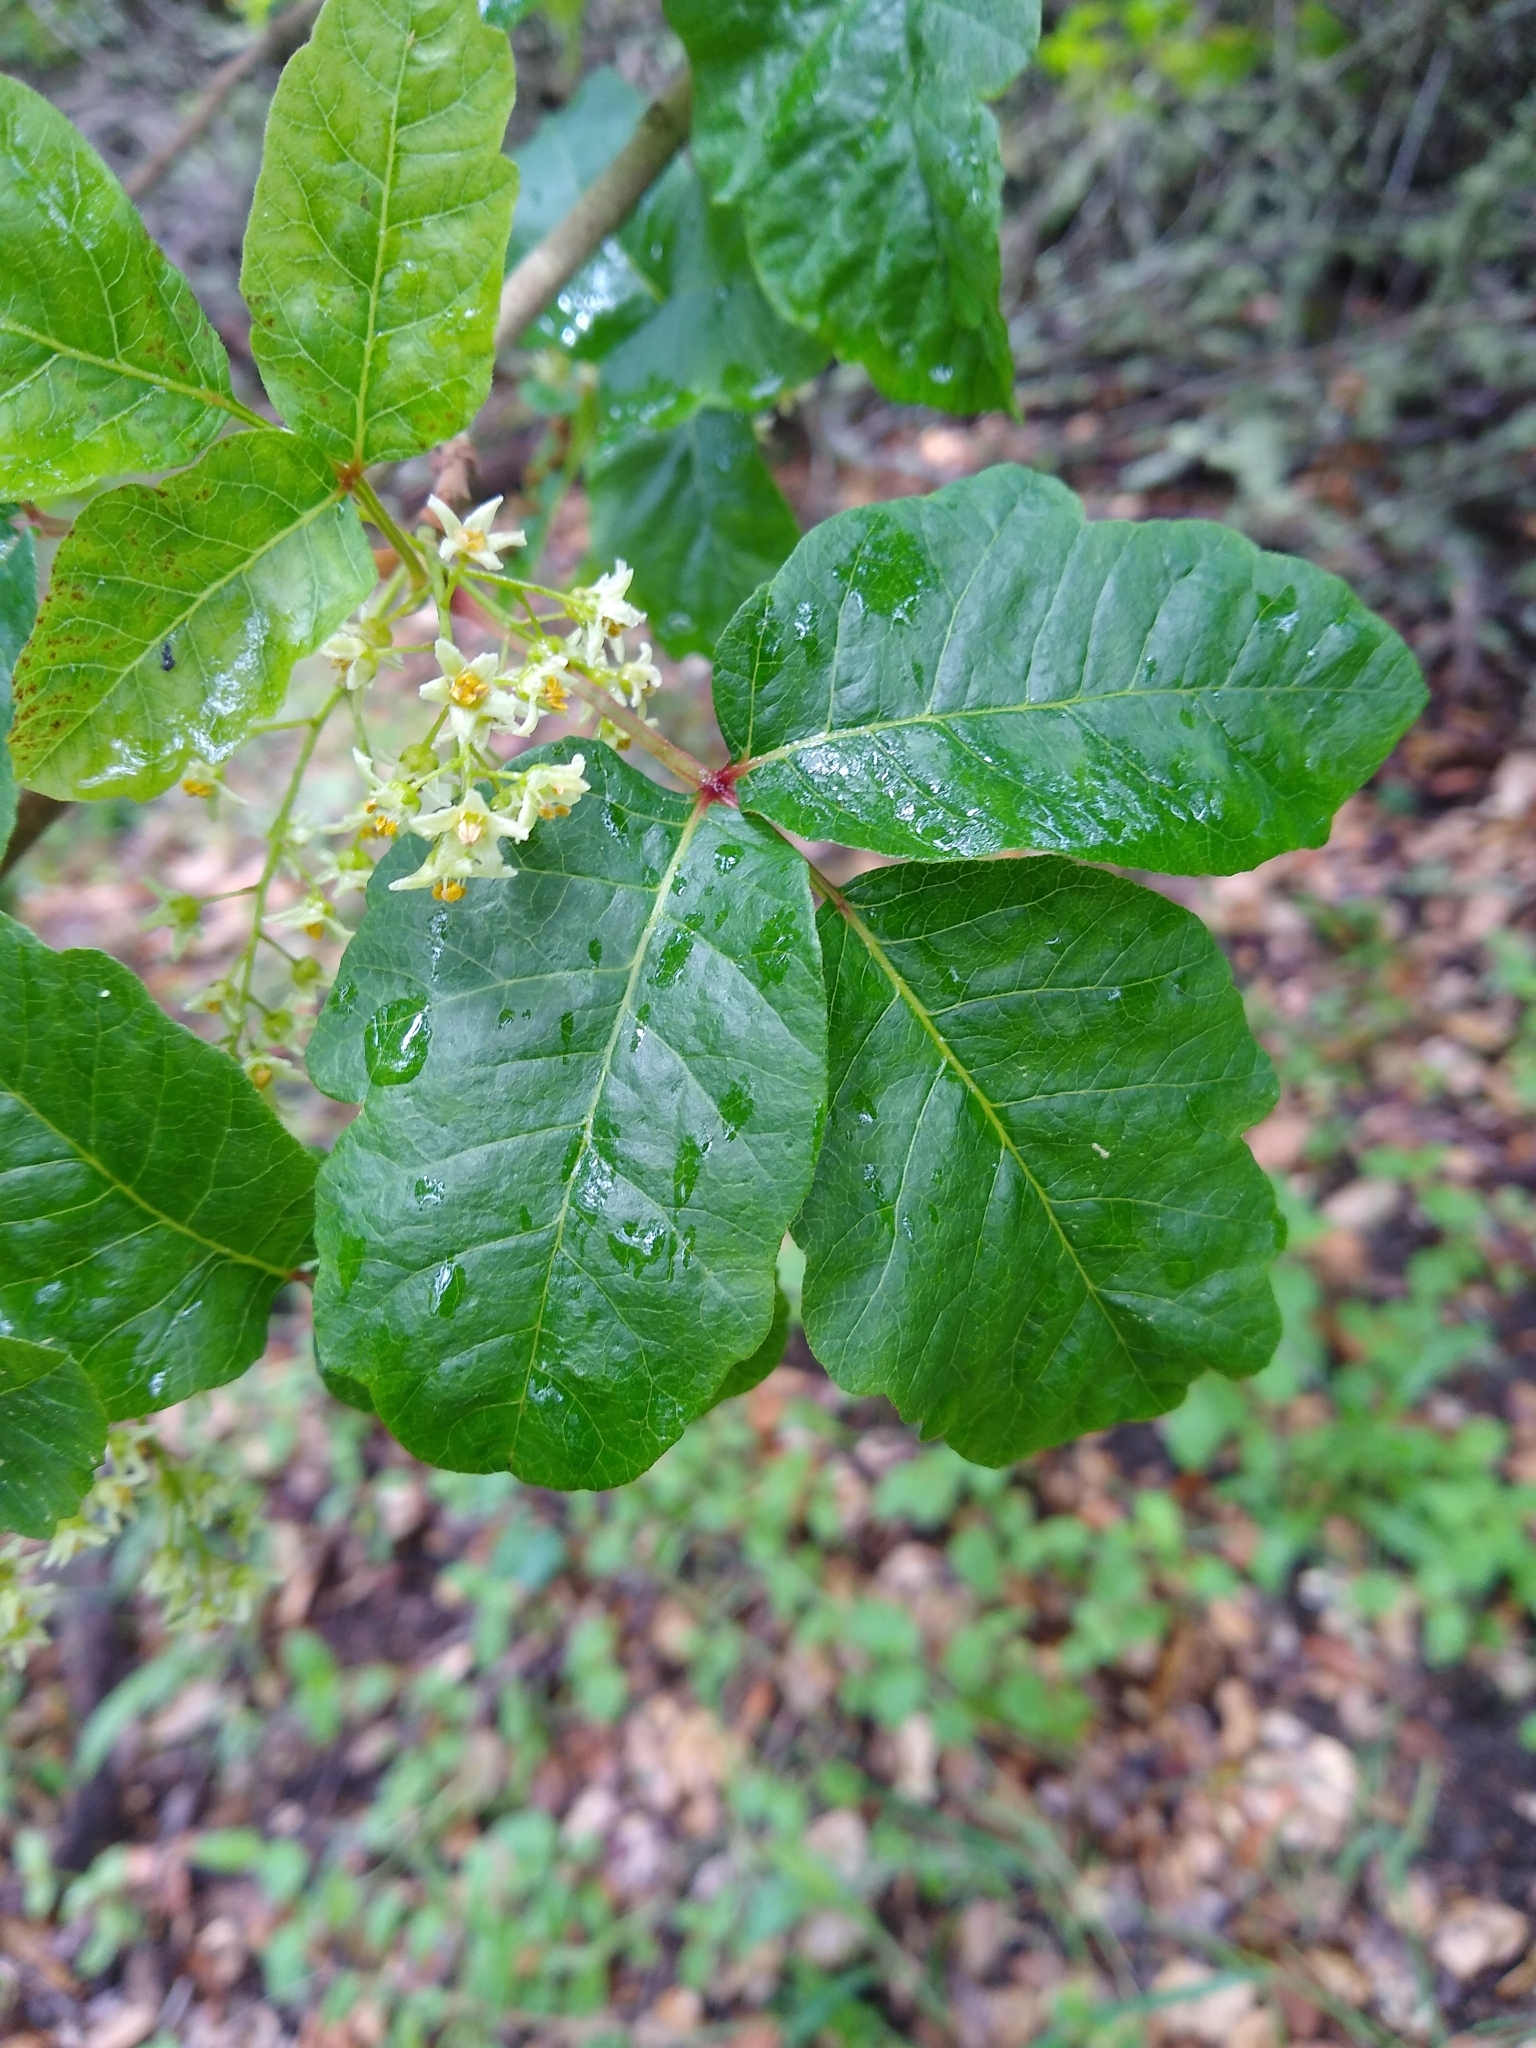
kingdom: Plantae
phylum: Tracheophyta
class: Magnoliopsida
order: Sapindales
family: Anacardiaceae
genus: Toxicodendron
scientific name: Toxicodendron diversilobum
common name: Pacific poison-oak
